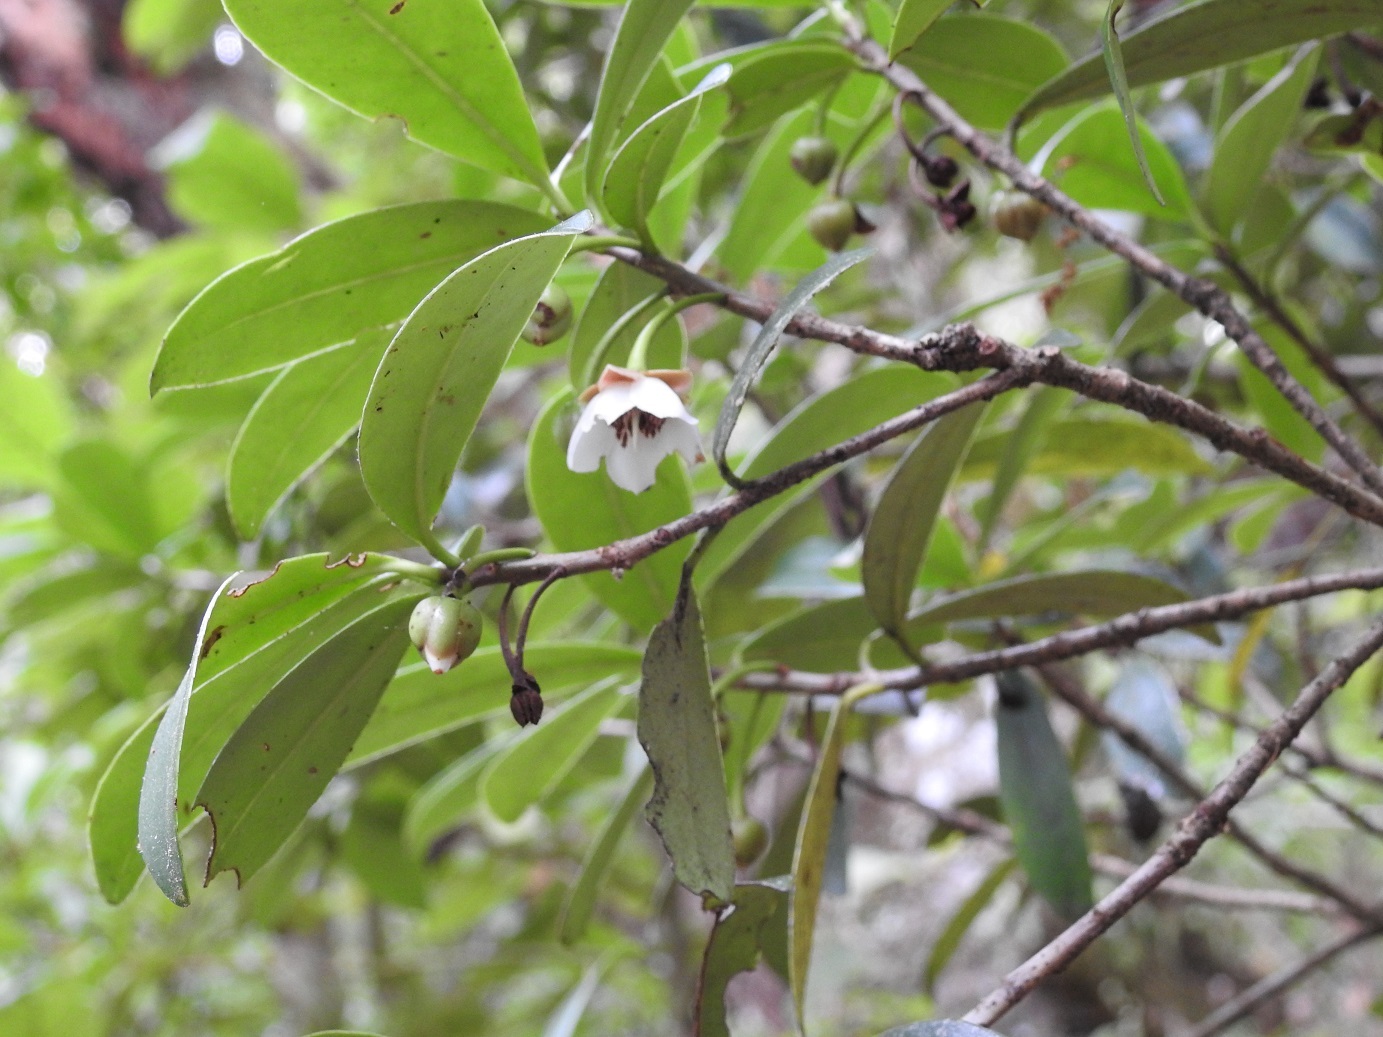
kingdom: Plantae
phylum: Tracheophyta
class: Magnoliopsida
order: Ericales
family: Pentaphylacaceae
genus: Ternstroemia
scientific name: Ternstroemia lineata
